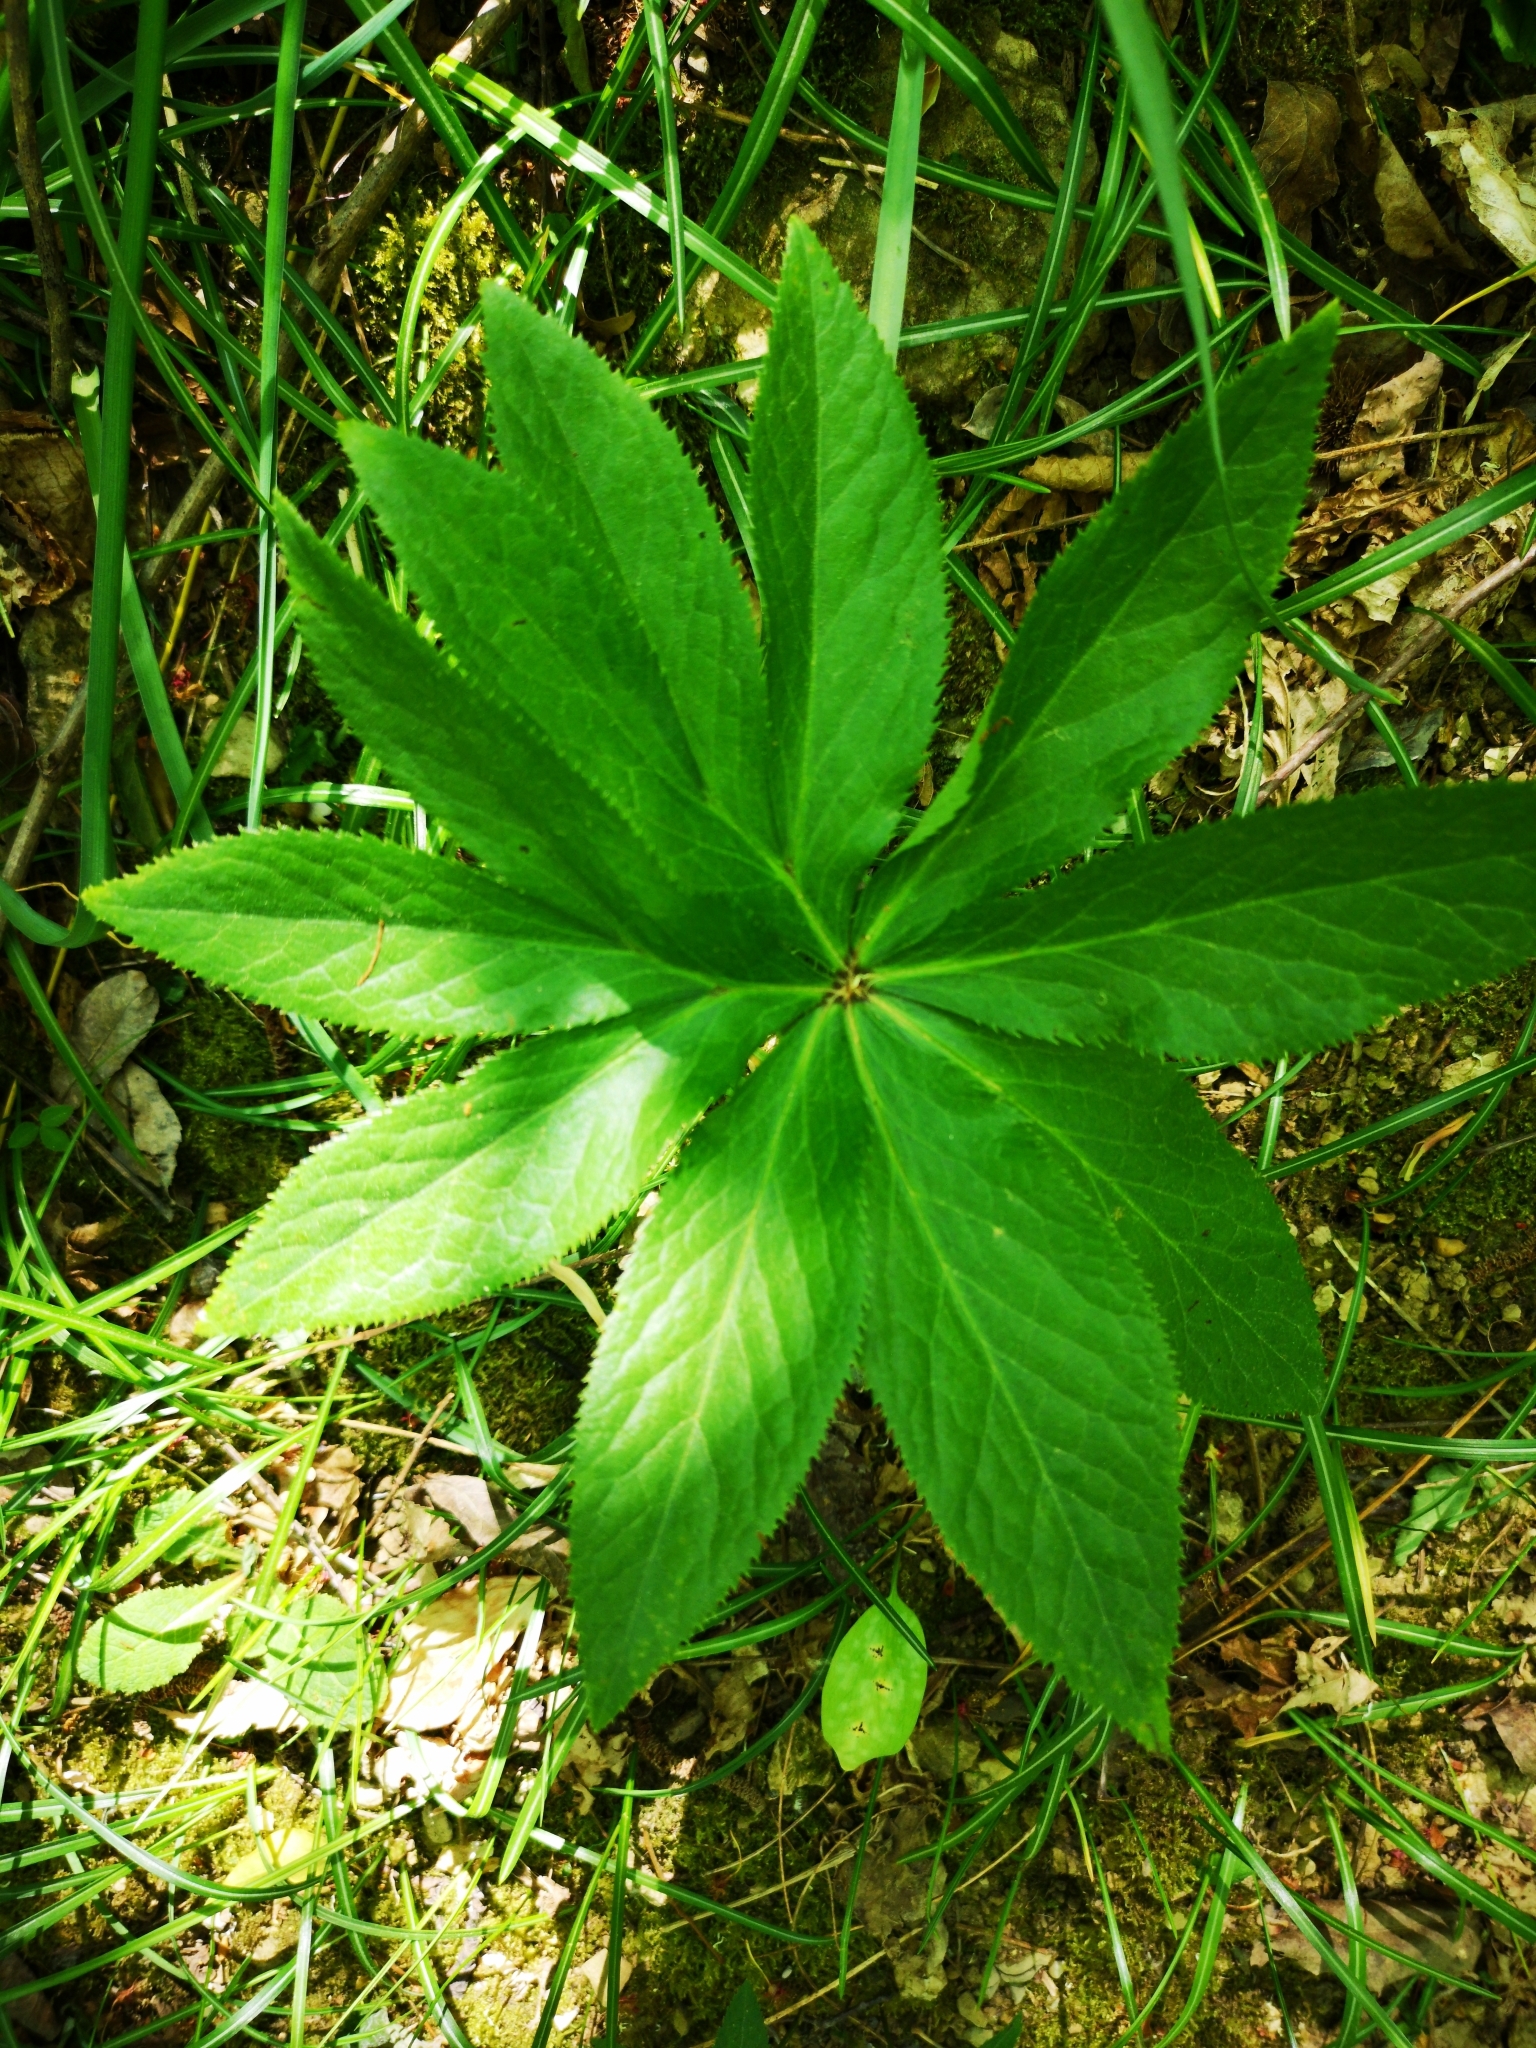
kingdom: Plantae
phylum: Tracheophyta
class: Magnoliopsida
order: Ranunculales
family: Ranunculaceae
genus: Helleborus
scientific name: Helleborus viridis
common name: Green hellebore
